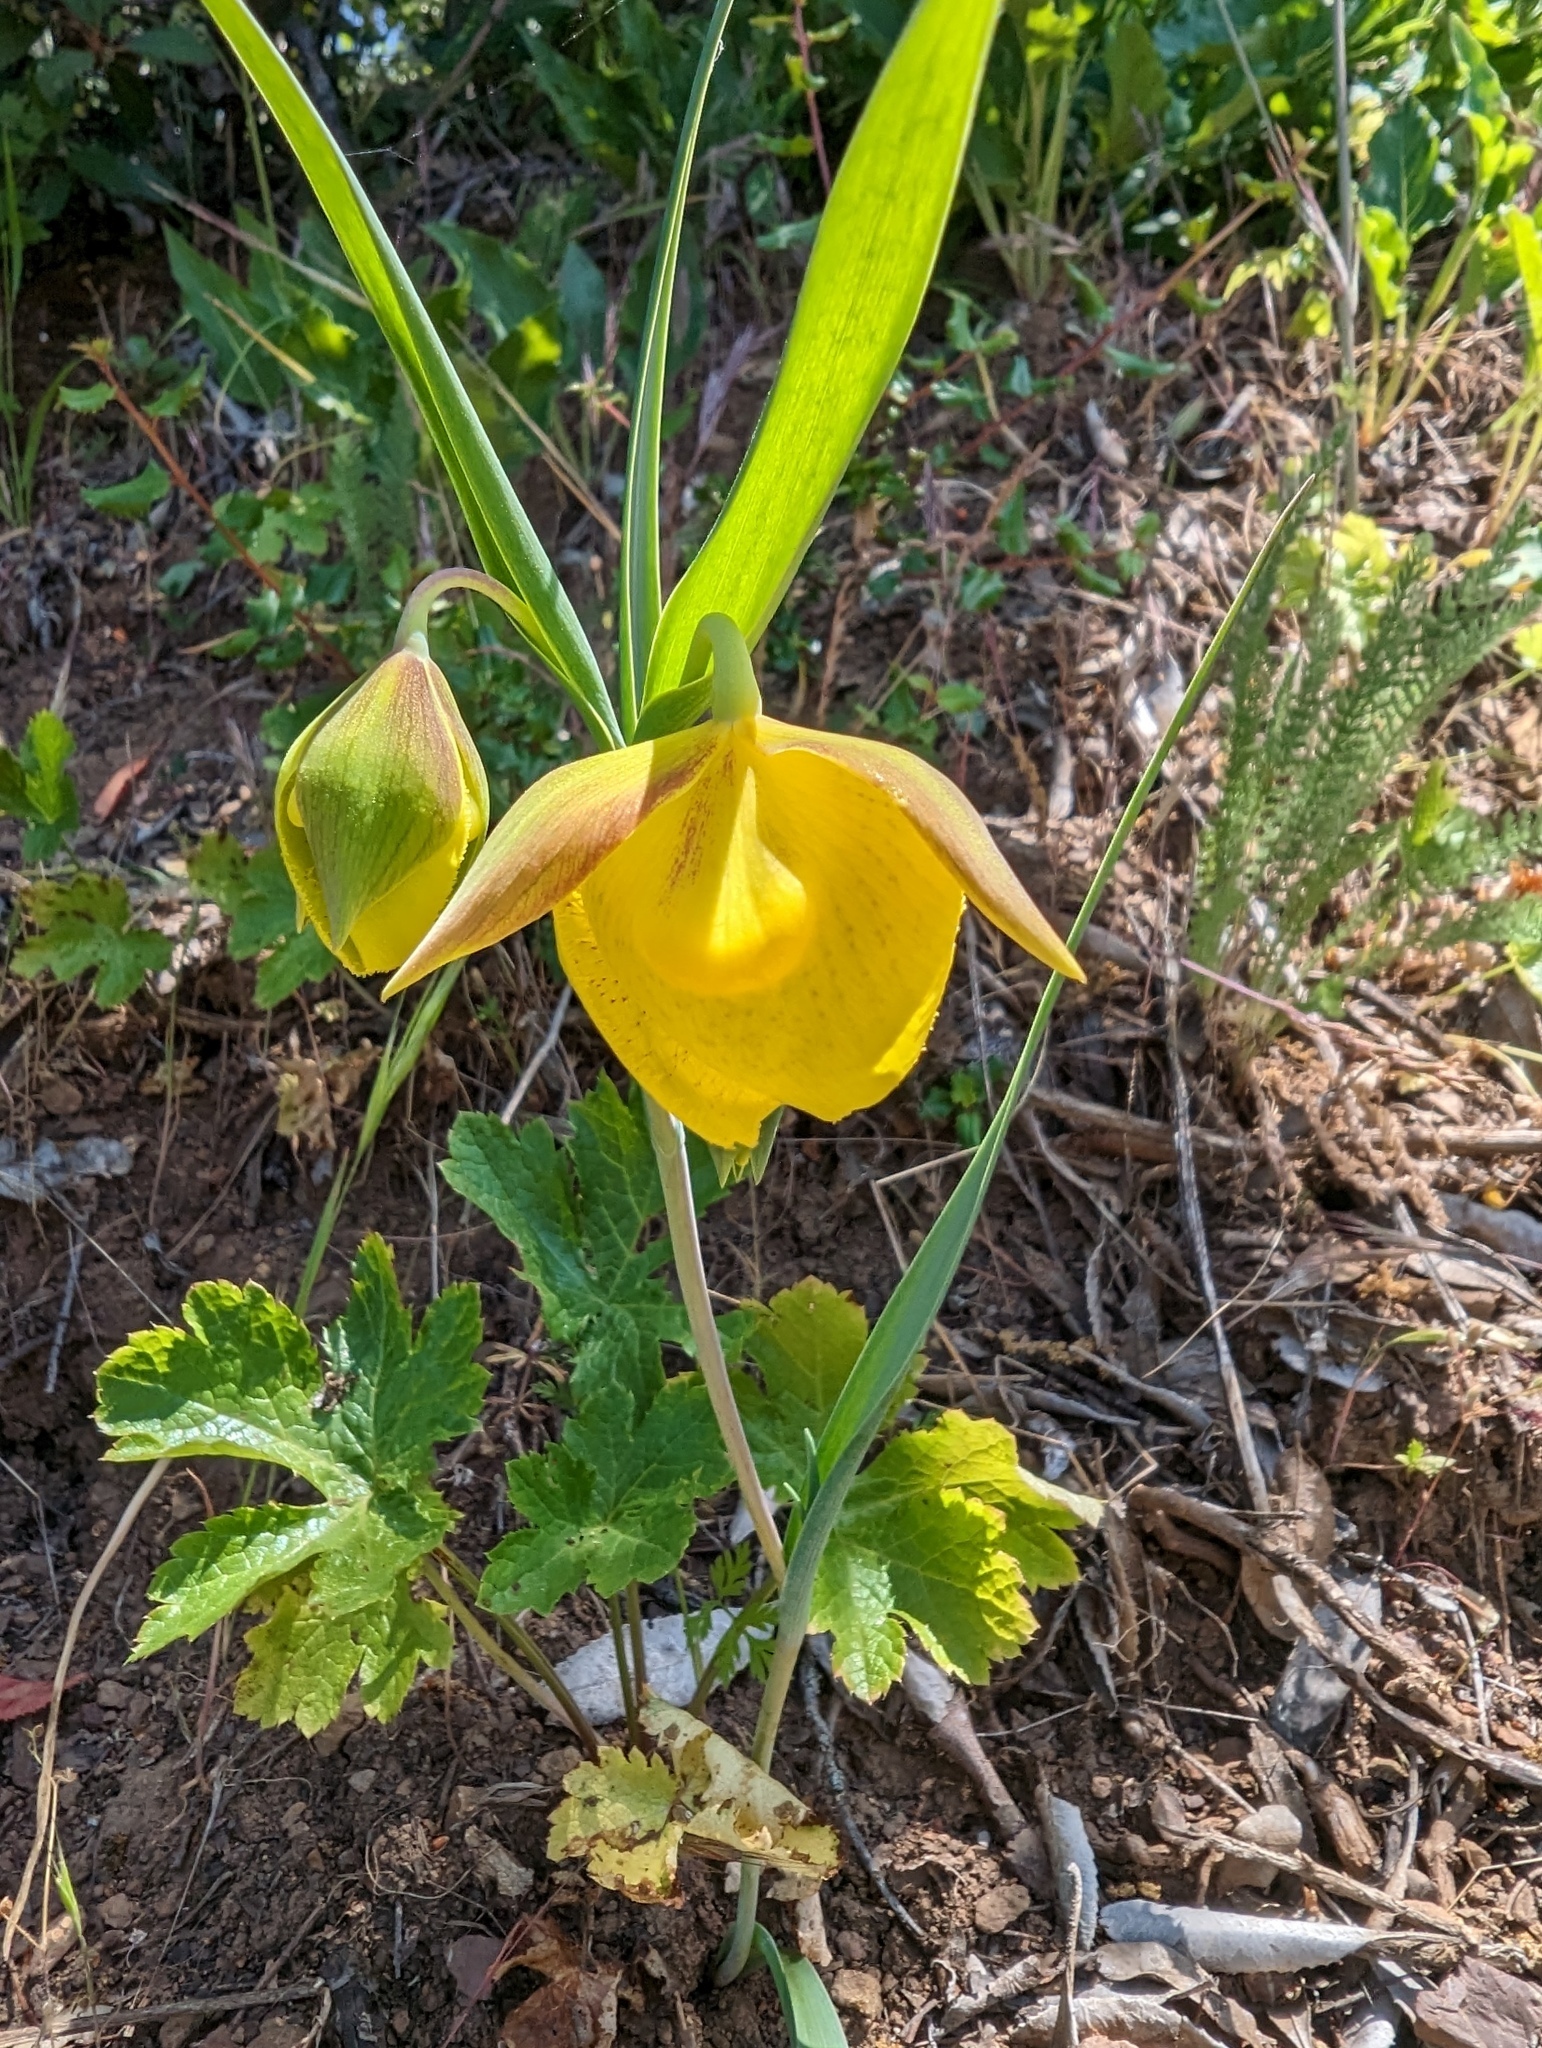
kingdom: Plantae
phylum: Tracheophyta
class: Liliopsida
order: Liliales
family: Liliaceae
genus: Calochortus
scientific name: Calochortus pulchellus
